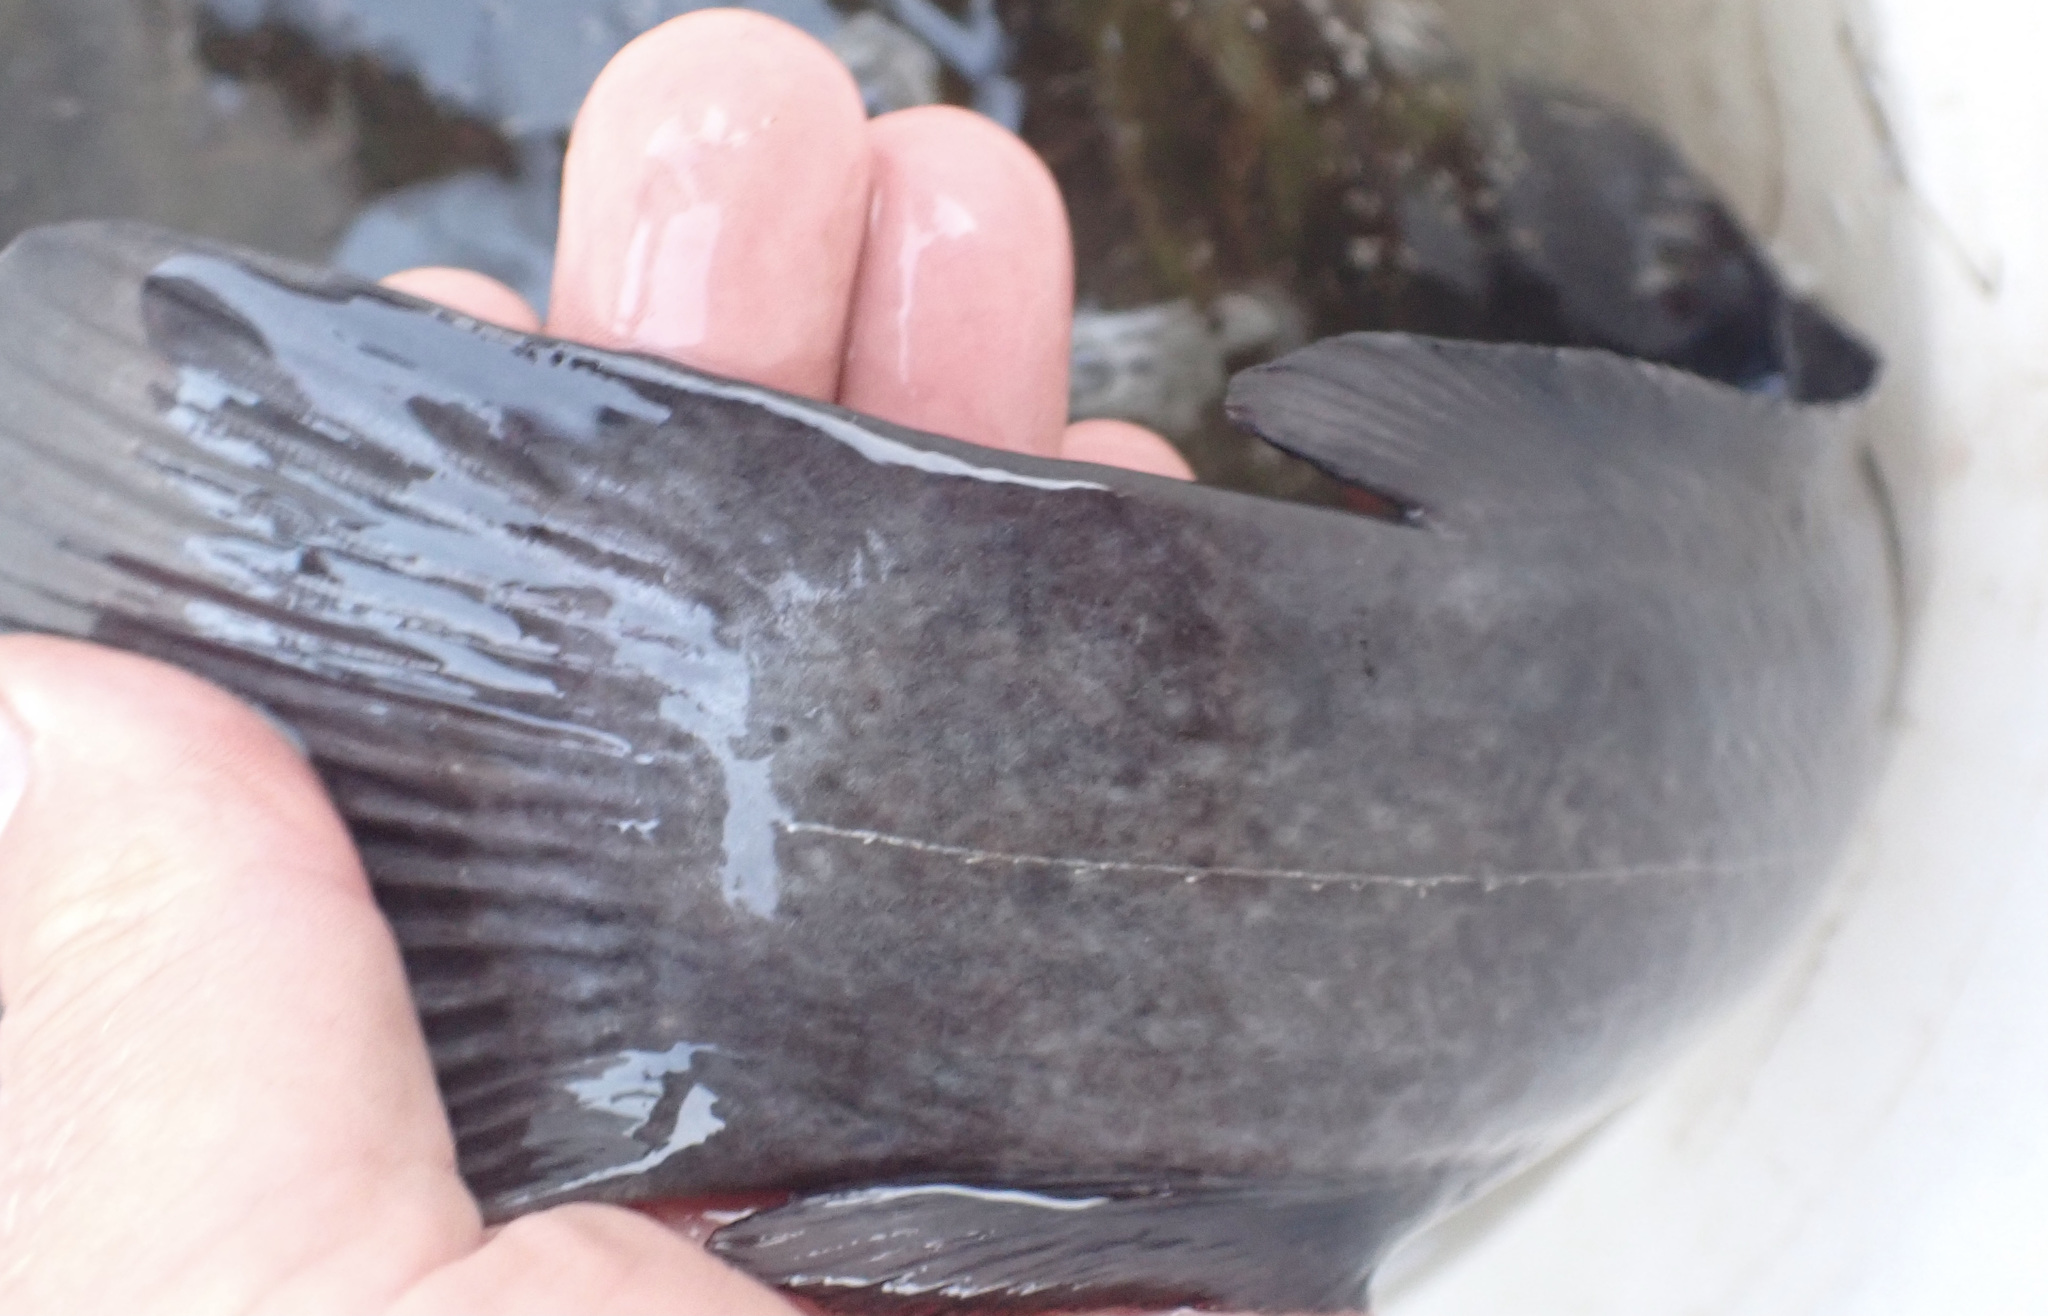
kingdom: Animalia
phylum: Chordata
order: Siluriformes
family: Clariidae
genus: Clarias
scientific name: Clarias ngamensis
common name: Blunt-toothed african catfish
